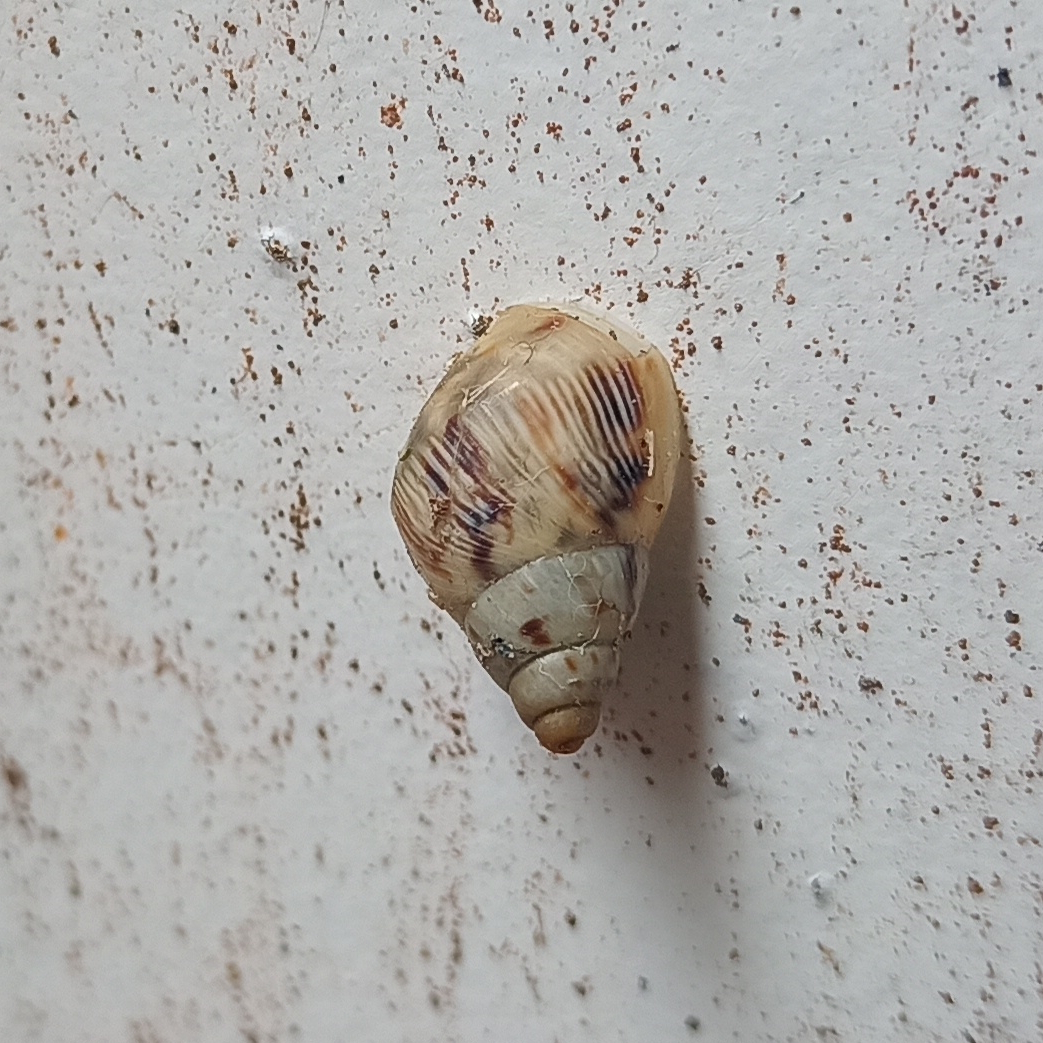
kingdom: Animalia
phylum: Mollusca
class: Gastropoda
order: Stylommatophora
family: Bulimulidae
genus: Drymaeus
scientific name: Drymaeus papyraceus
